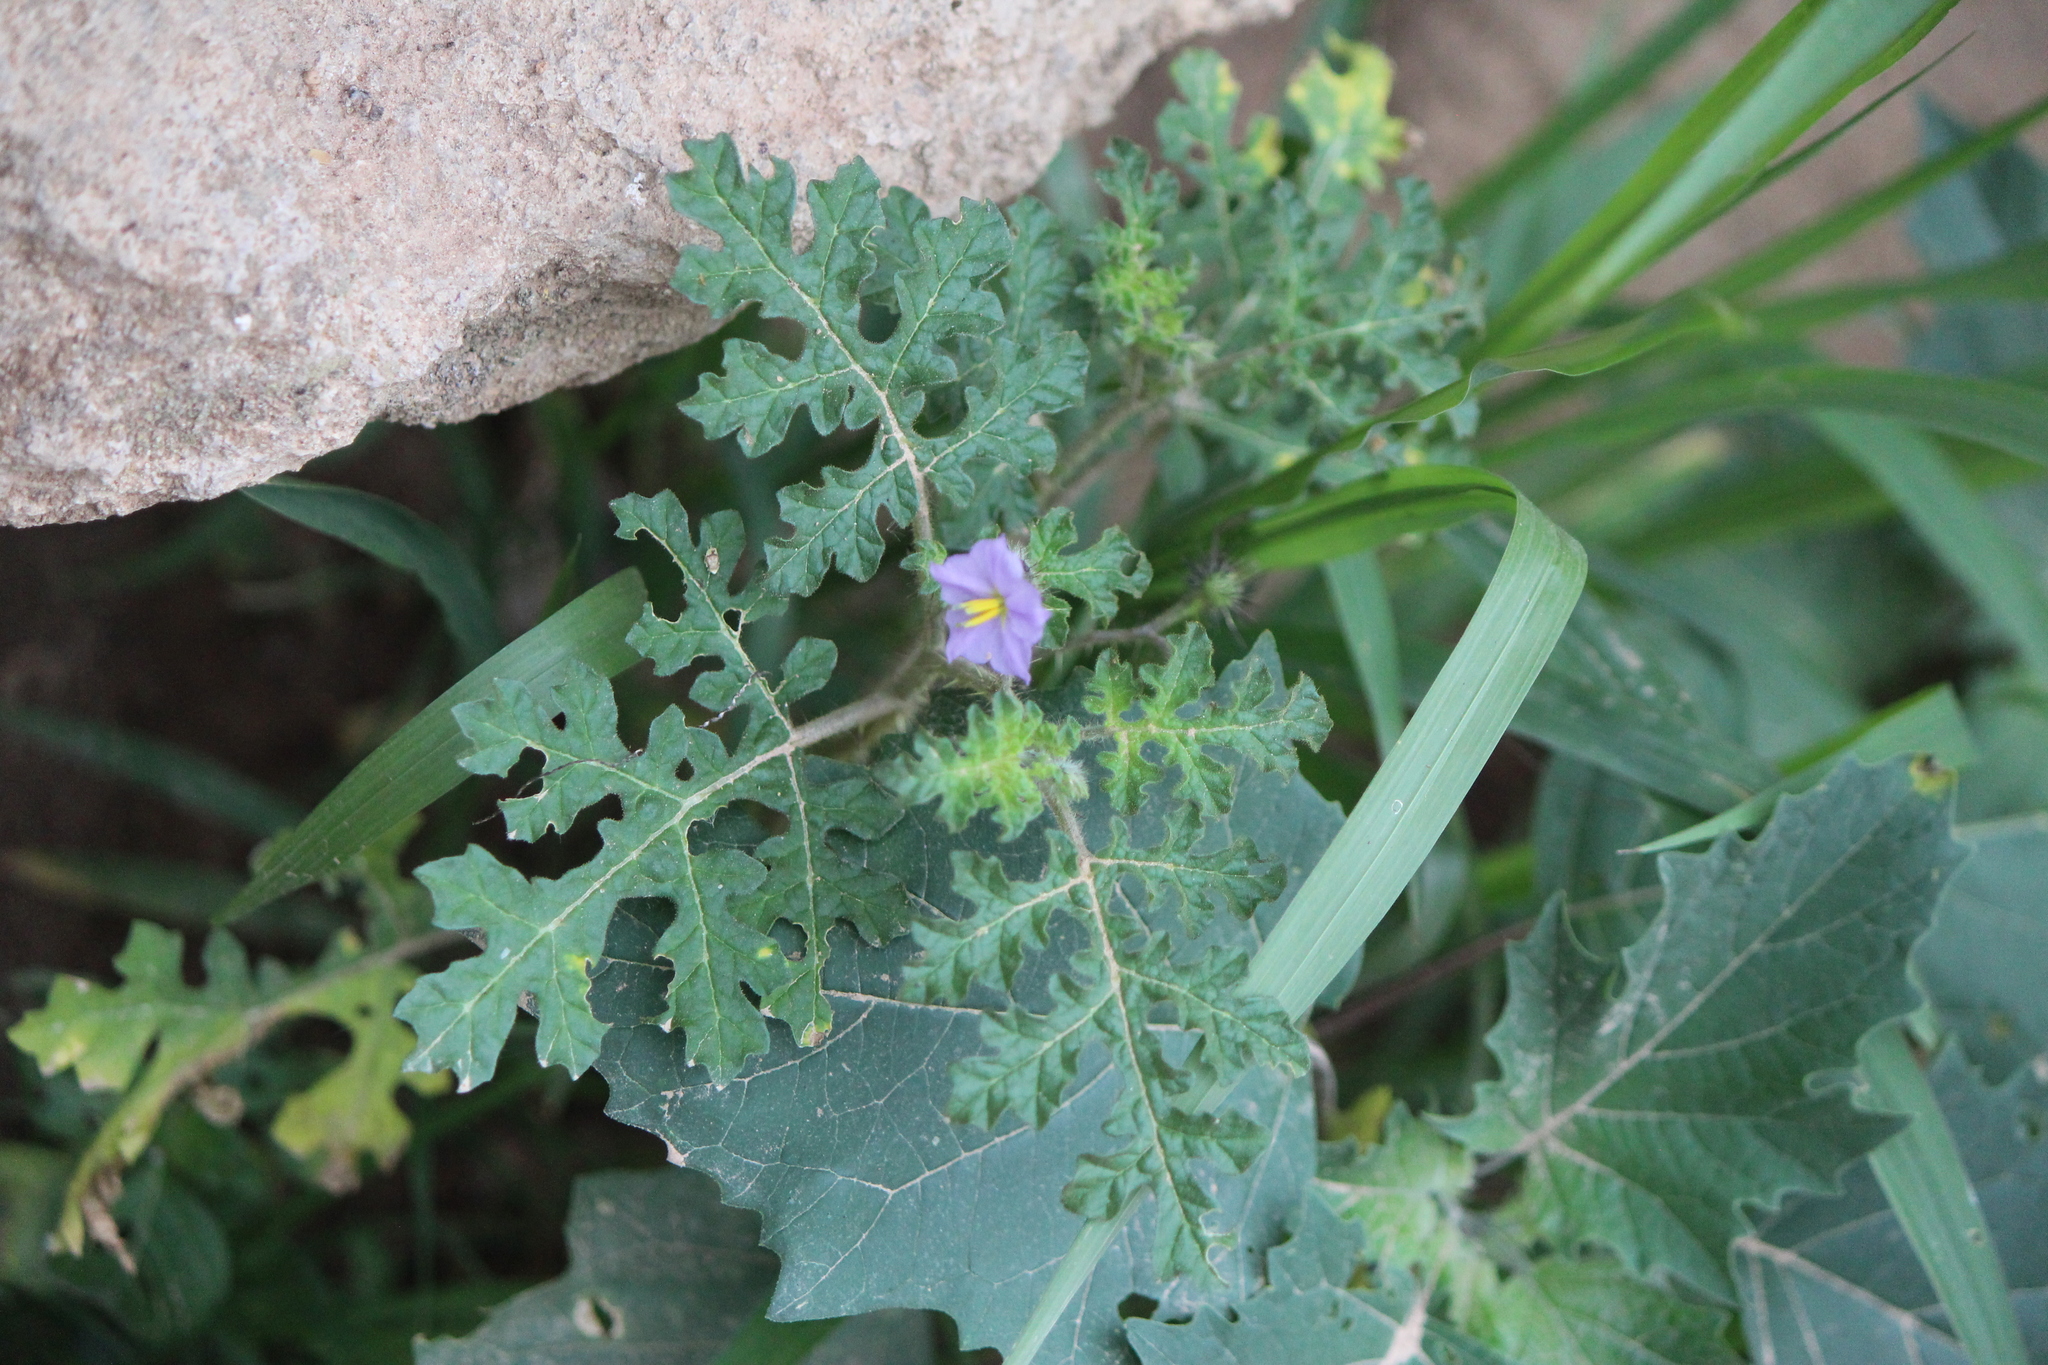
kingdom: Plantae
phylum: Tracheophyta
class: Magnoliopsida
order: Solanales
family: Solanaceae
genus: Solanum
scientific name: Solanum heterodoxum
